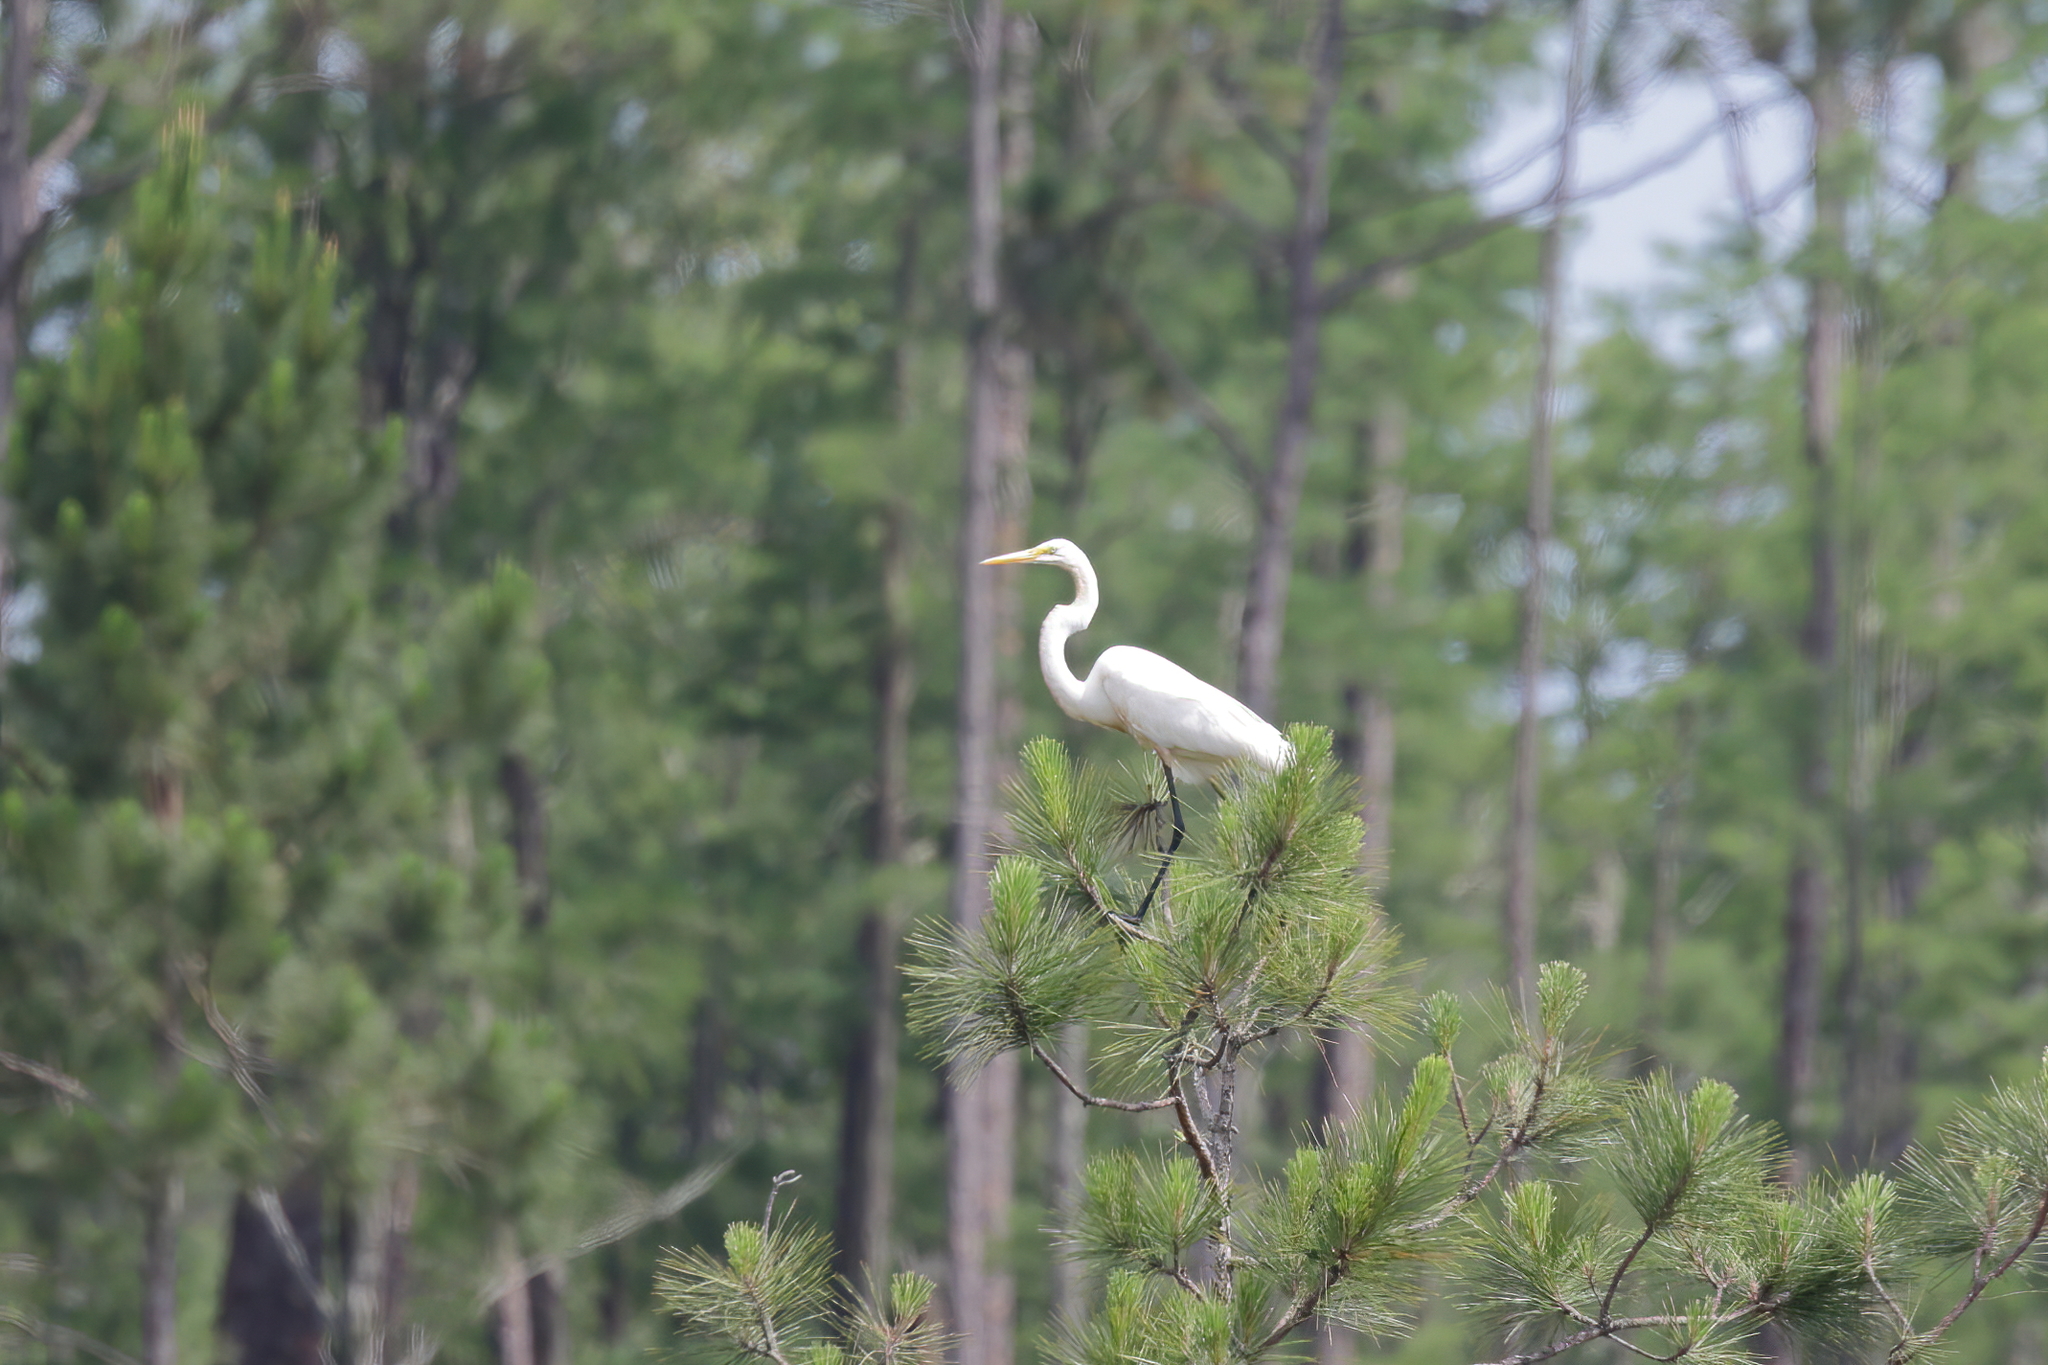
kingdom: Animalia
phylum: Chordata
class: Aves
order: Pelecaniformes
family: Ardeidae
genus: Ardea
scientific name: Ardea alba
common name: Great egret
